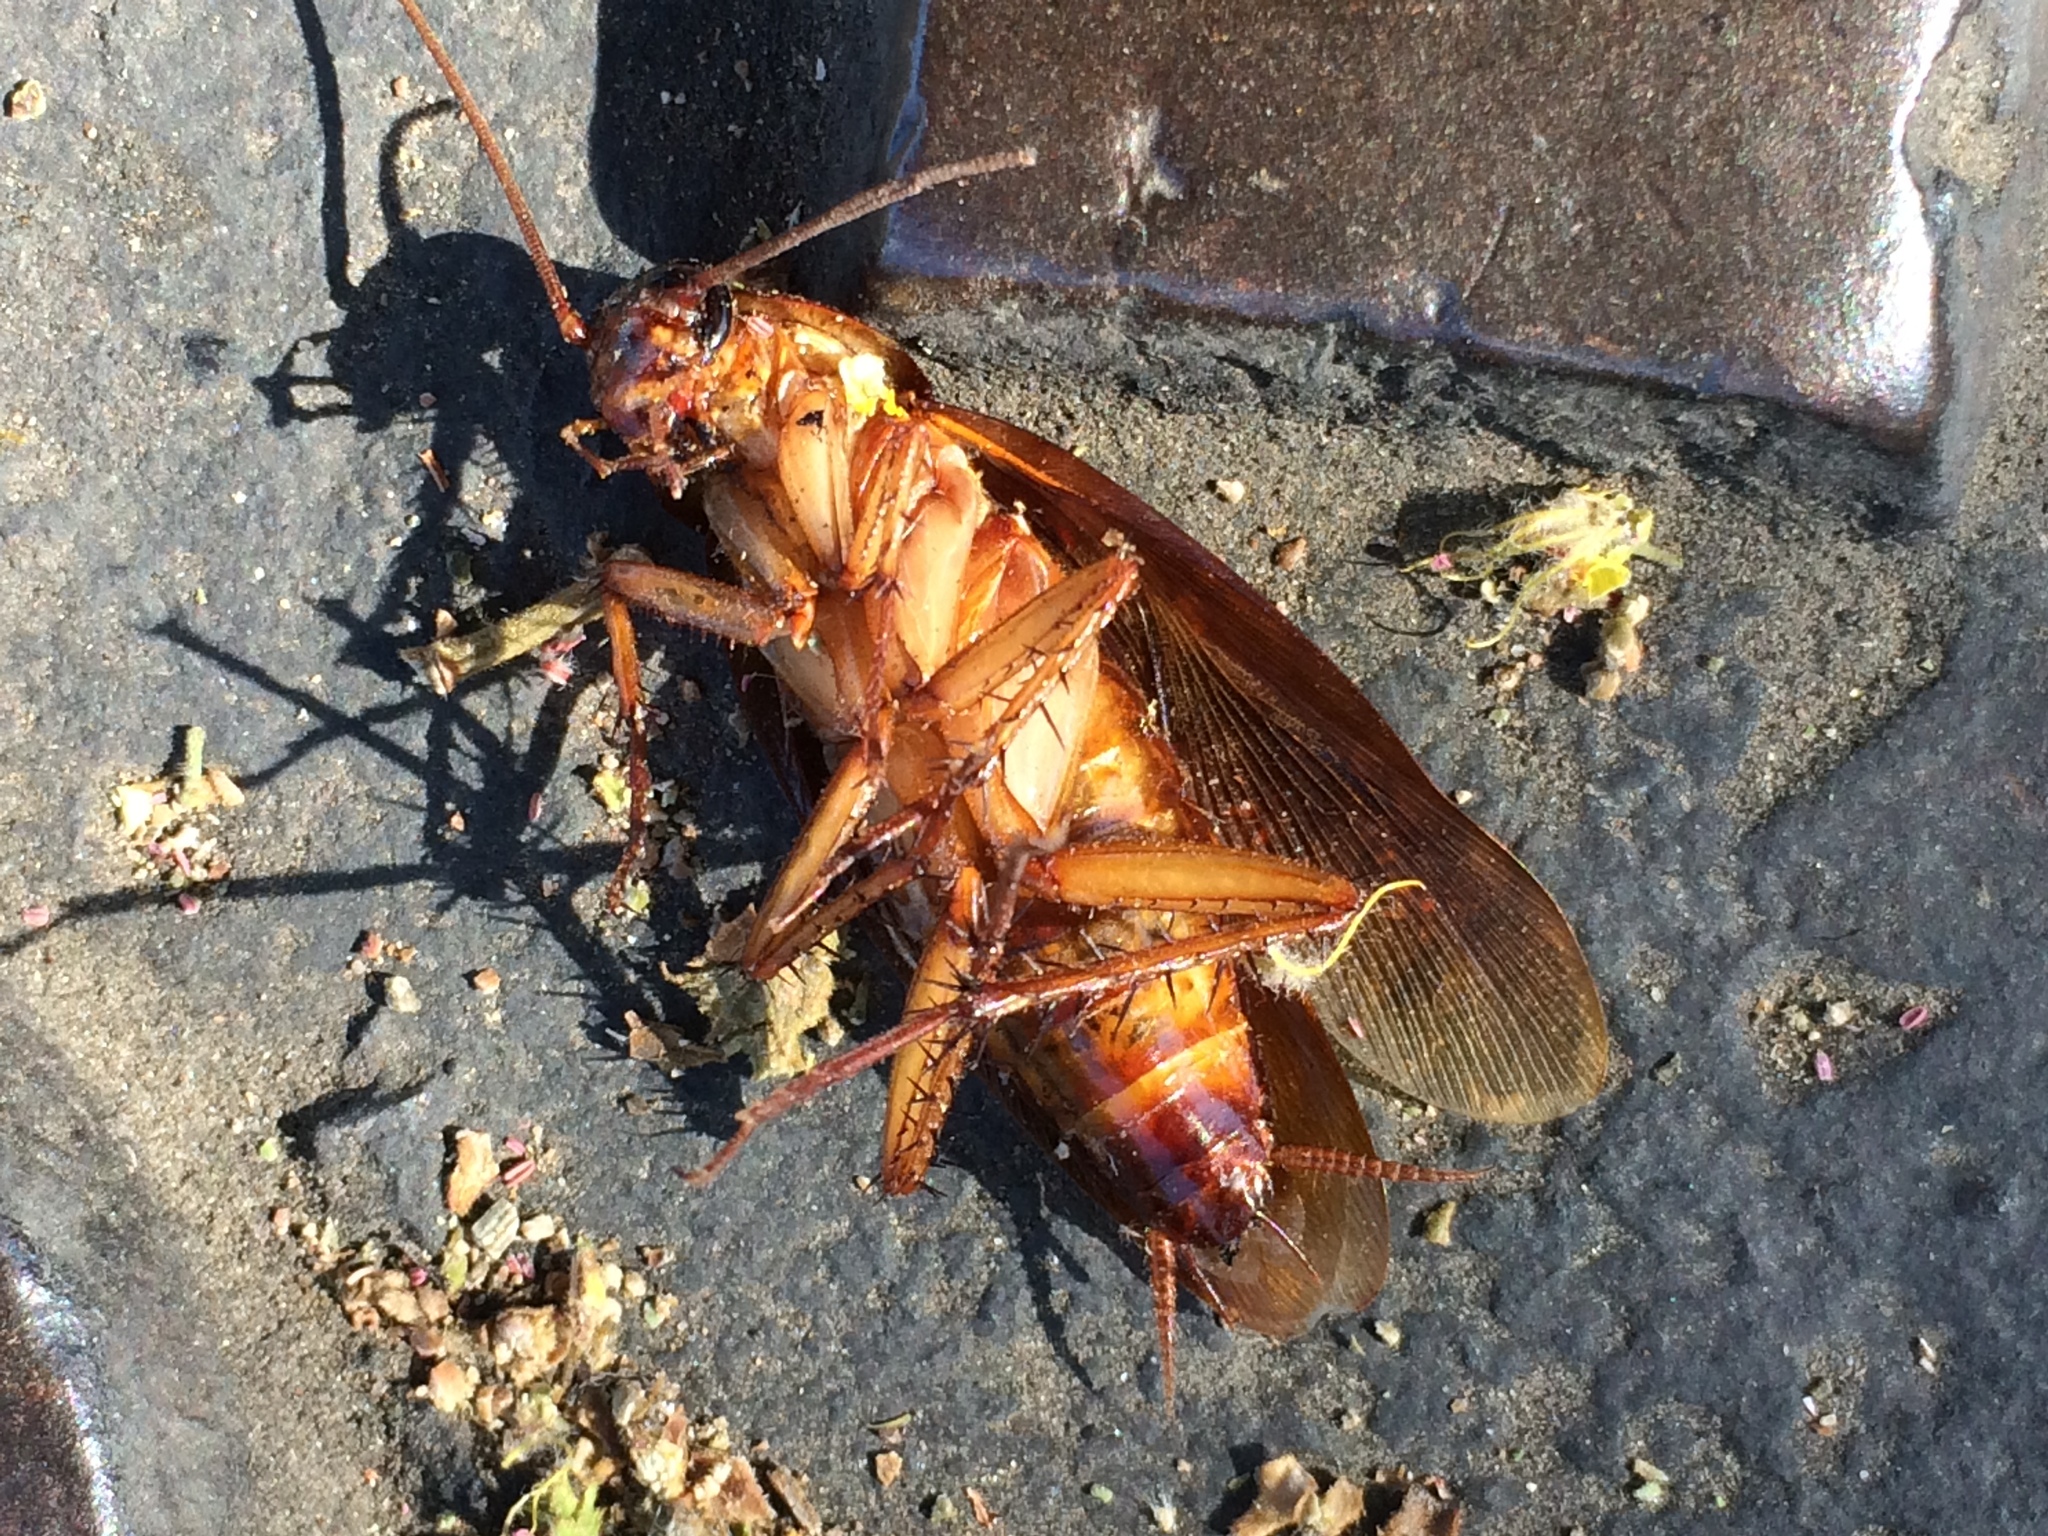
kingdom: Animalia
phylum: Arthropoda
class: Insecta
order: Blattodea
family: Blattidae
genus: Periplaneta
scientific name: Periplaneta americana
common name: American cockroach
